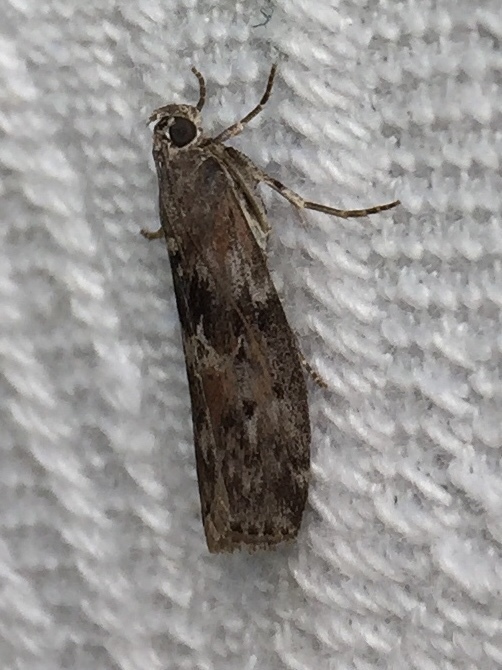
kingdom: Animalia
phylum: Arthropoda
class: Insecta
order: Lepidoptera
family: Pyralidae
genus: Sciota
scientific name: Sciota virgatella
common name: Black-spotted leafroller moth
